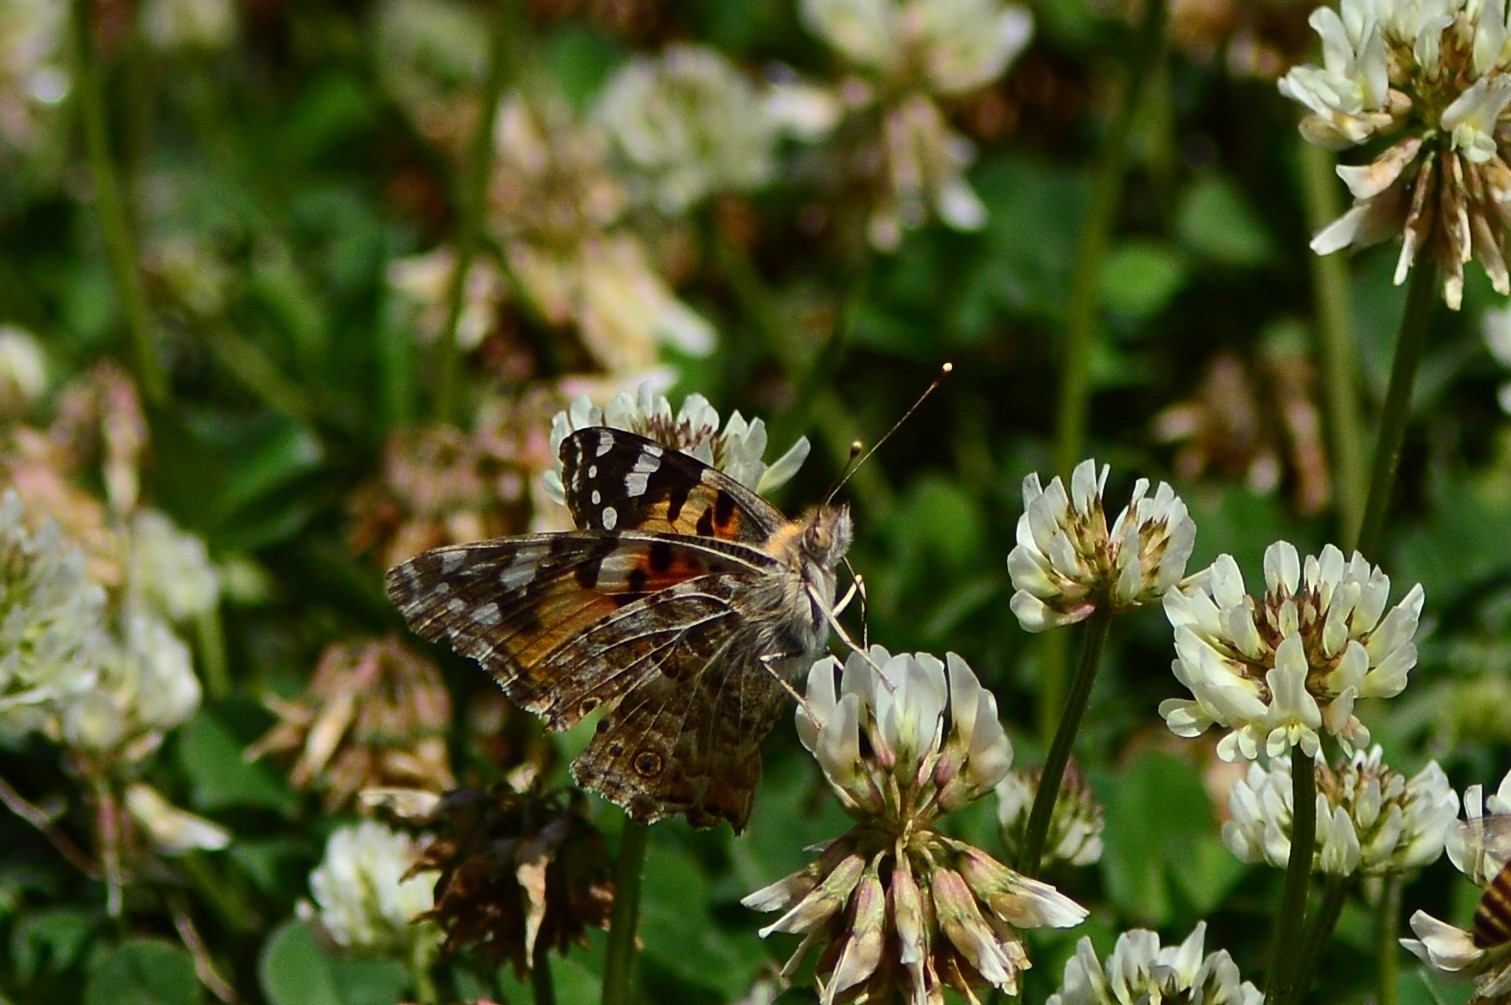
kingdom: Animalia
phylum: Arthropoda
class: Insecta
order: Lepidoptera
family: Nymphalidae
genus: Vanessa
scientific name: Vanessa cardui
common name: Painted lady
